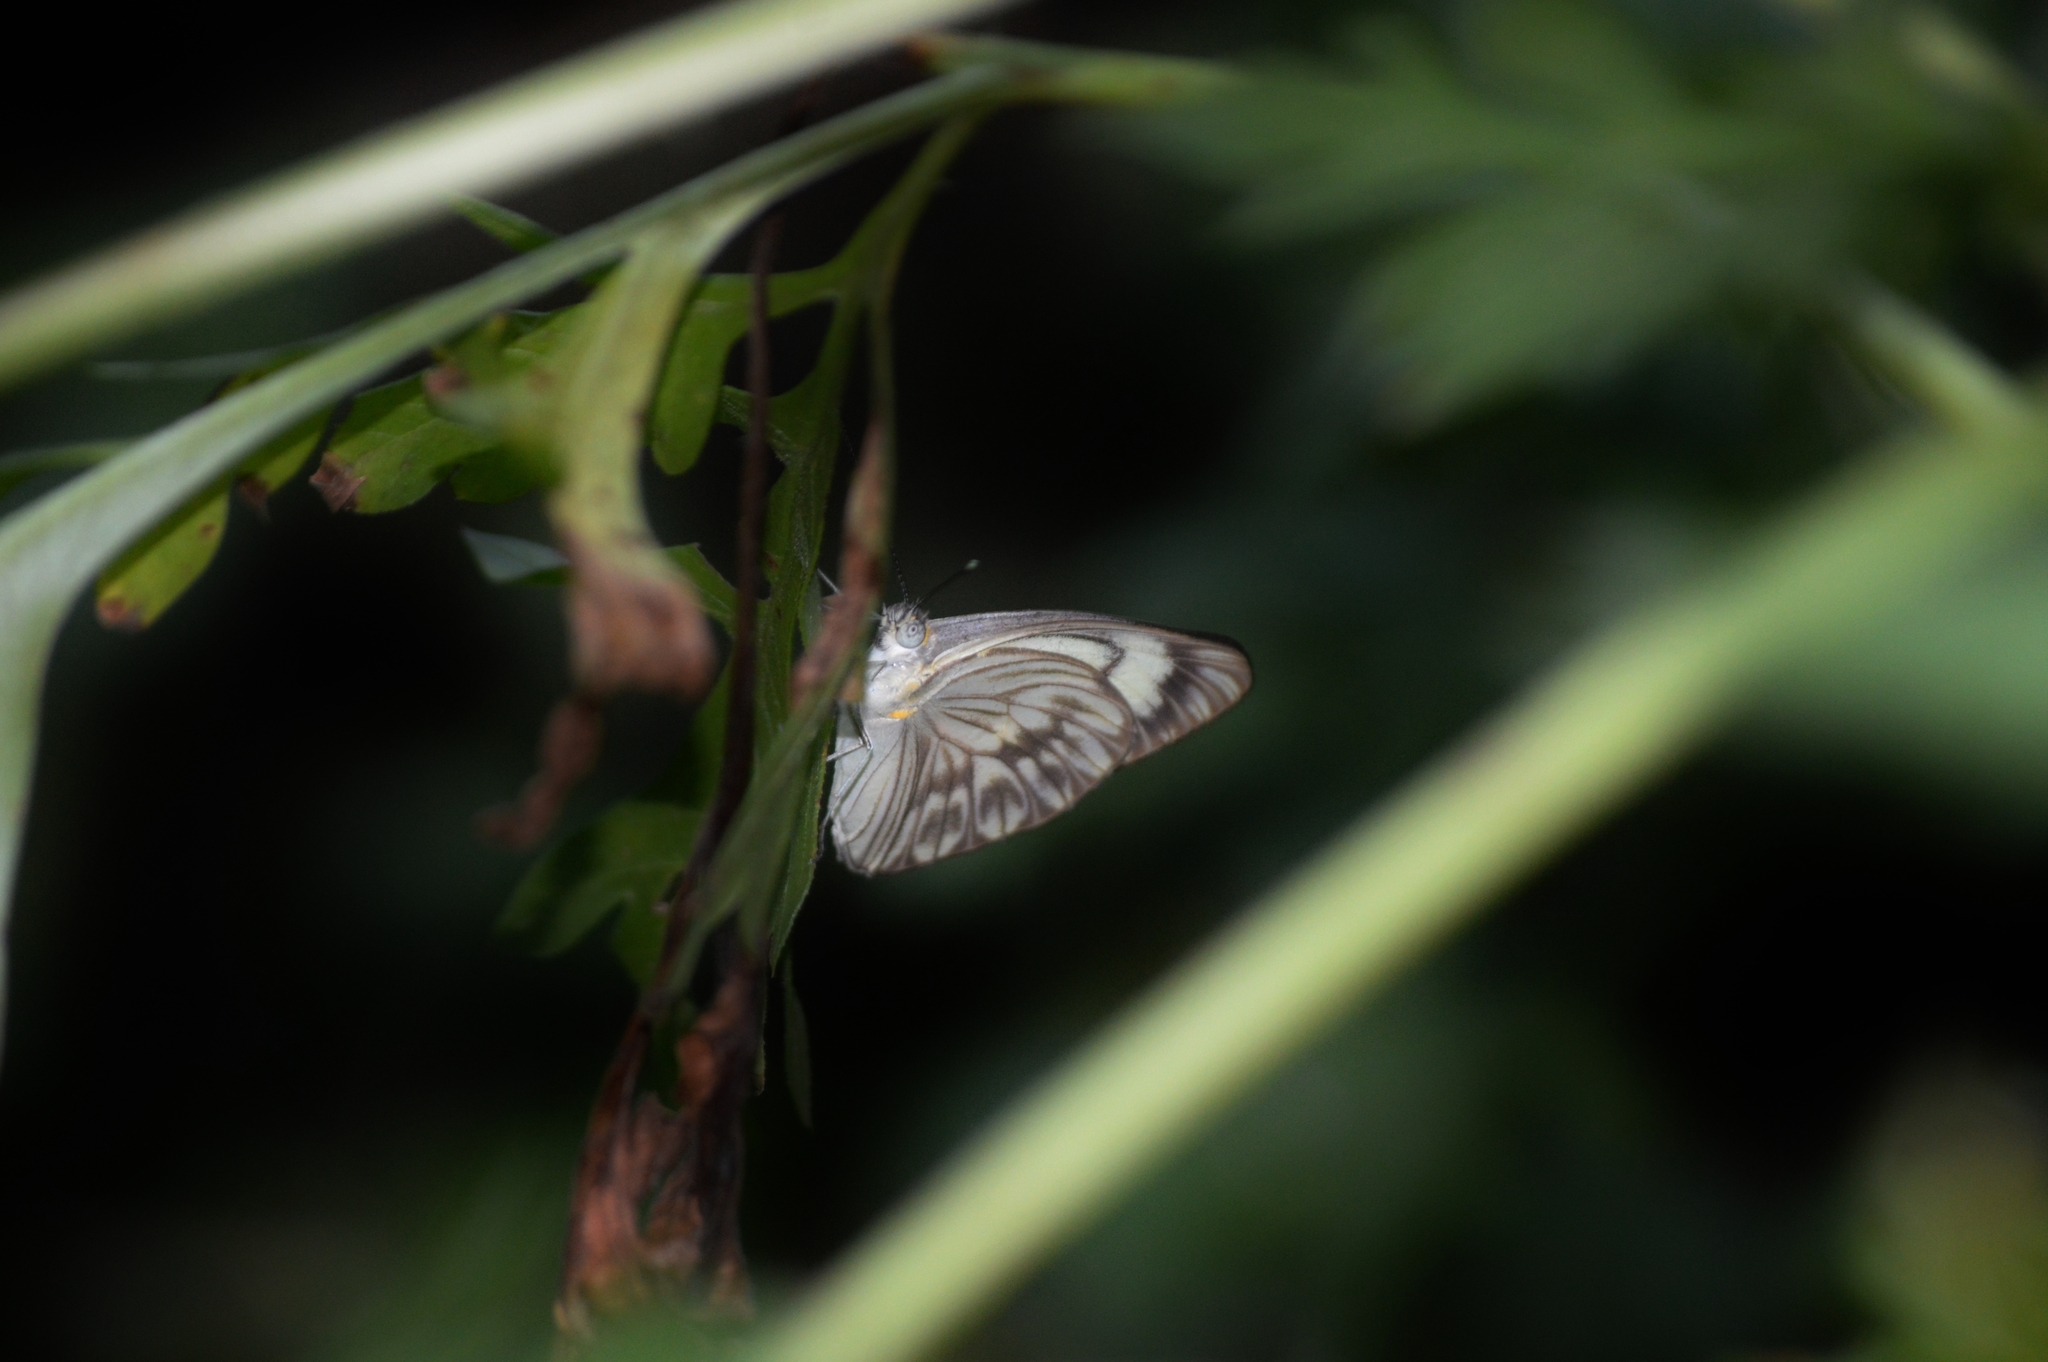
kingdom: Animalia
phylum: Arthropoda
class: Insecta
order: Lepidoptera
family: Pieridae
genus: Ascia
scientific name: Ascia monuste
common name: Great southern white
